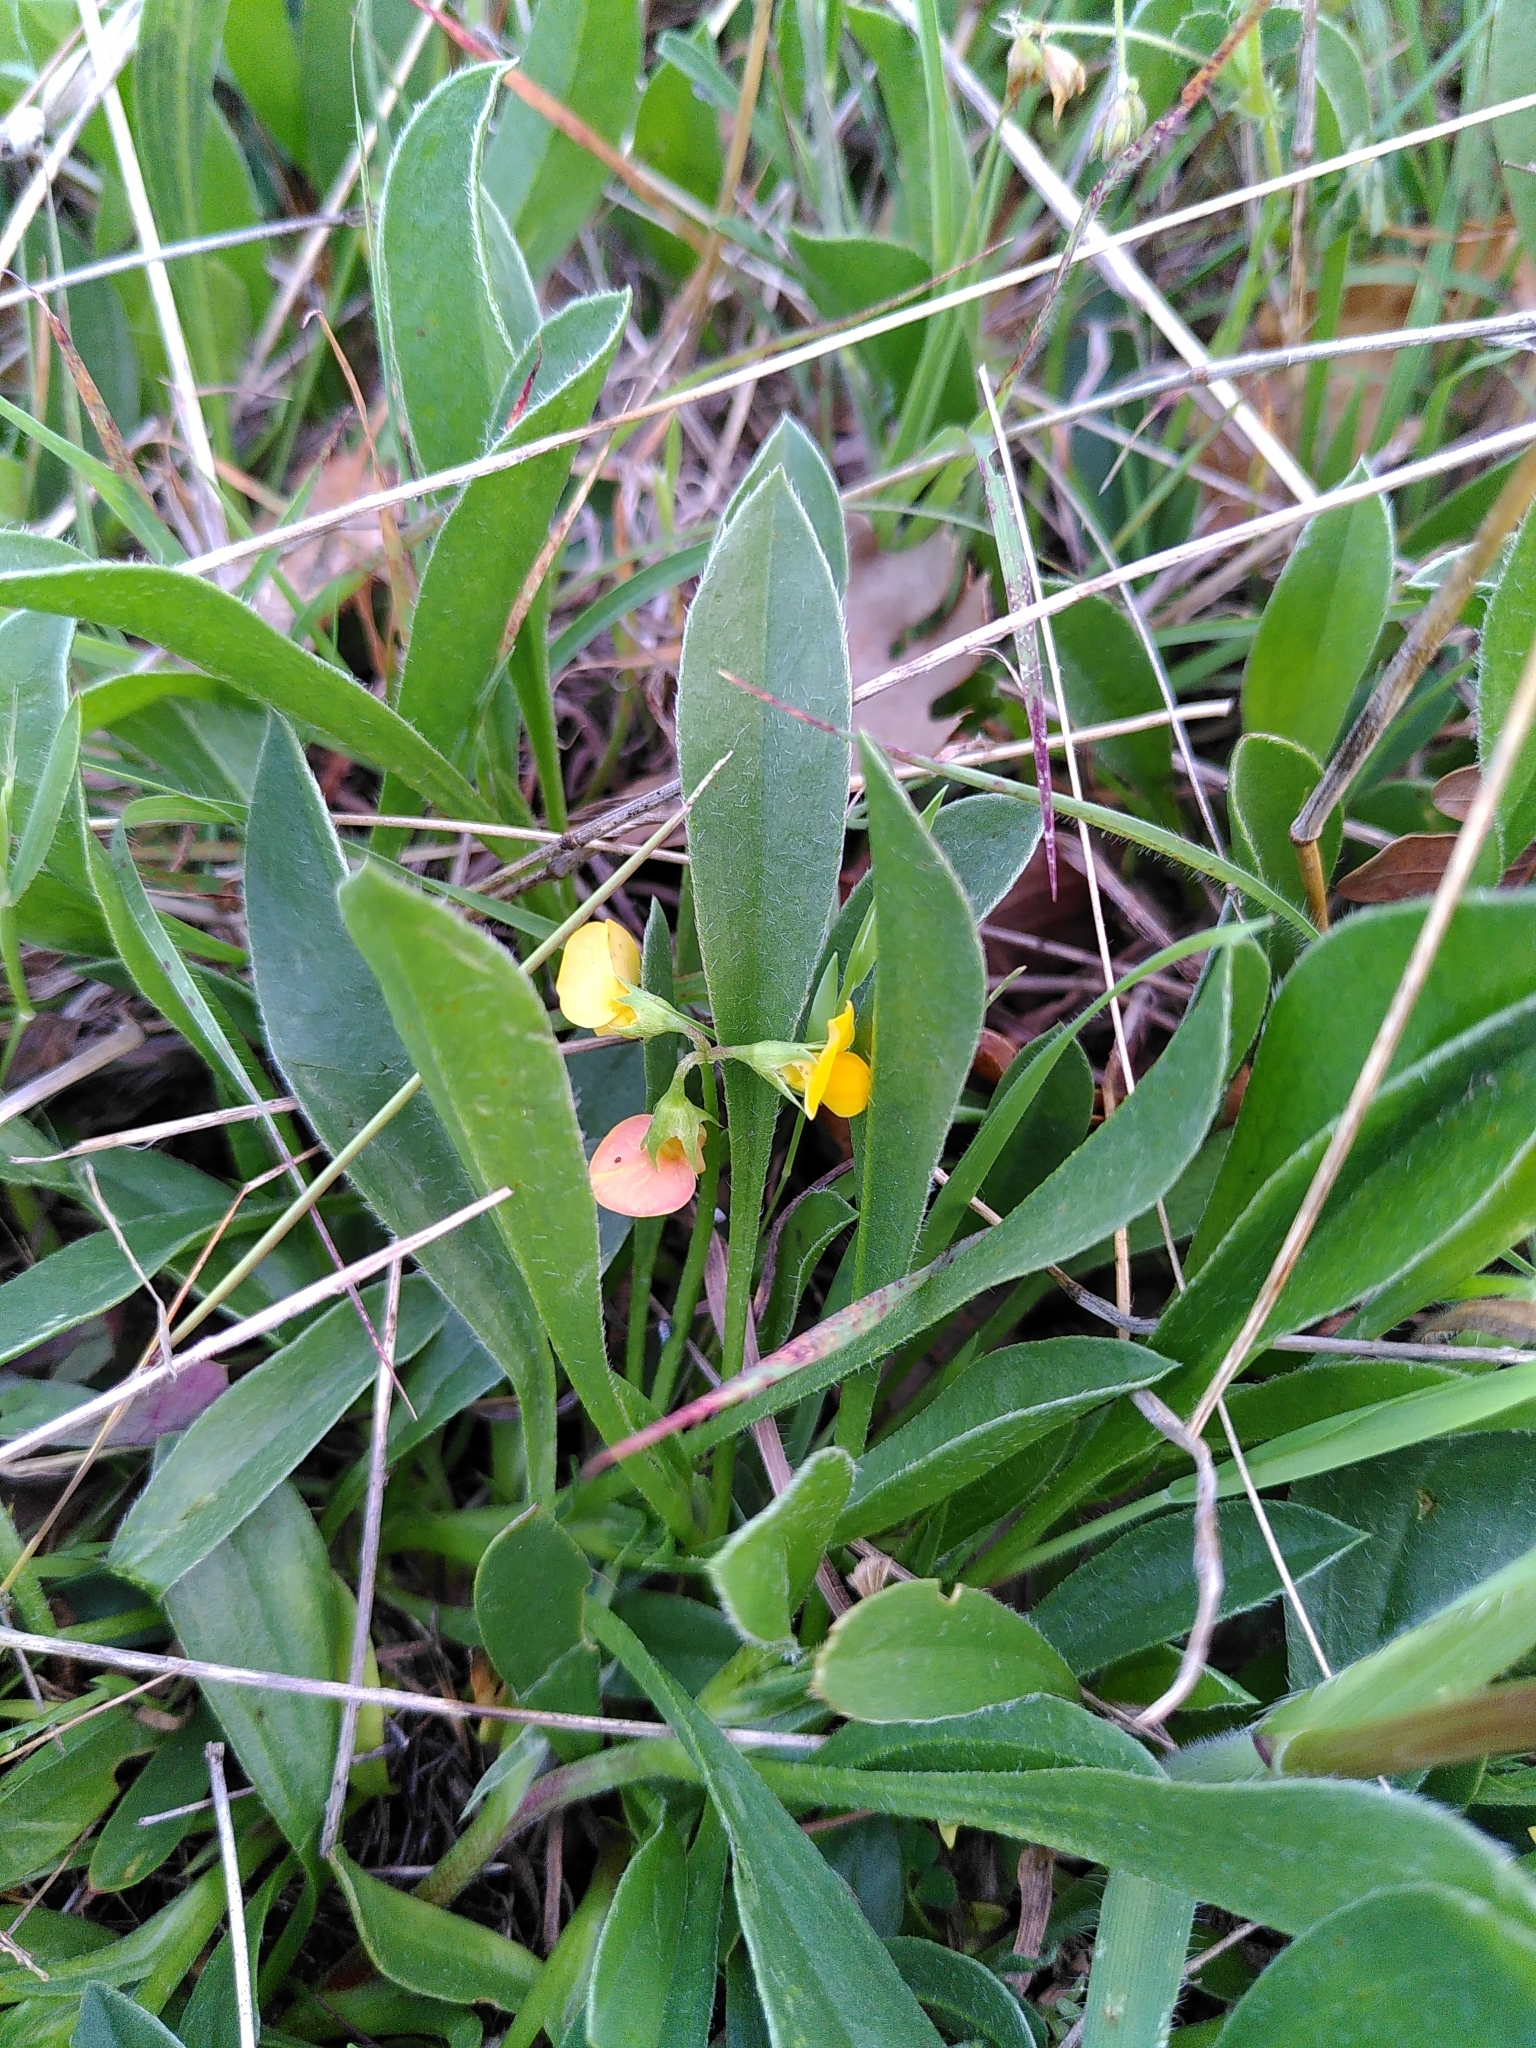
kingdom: Plantae
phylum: Tracheophyta
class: Magnoliopsida
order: Fabales
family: Fabaceae
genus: Scorpiurus
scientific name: Scorpiurus muricatus
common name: Caterpillar-plant
